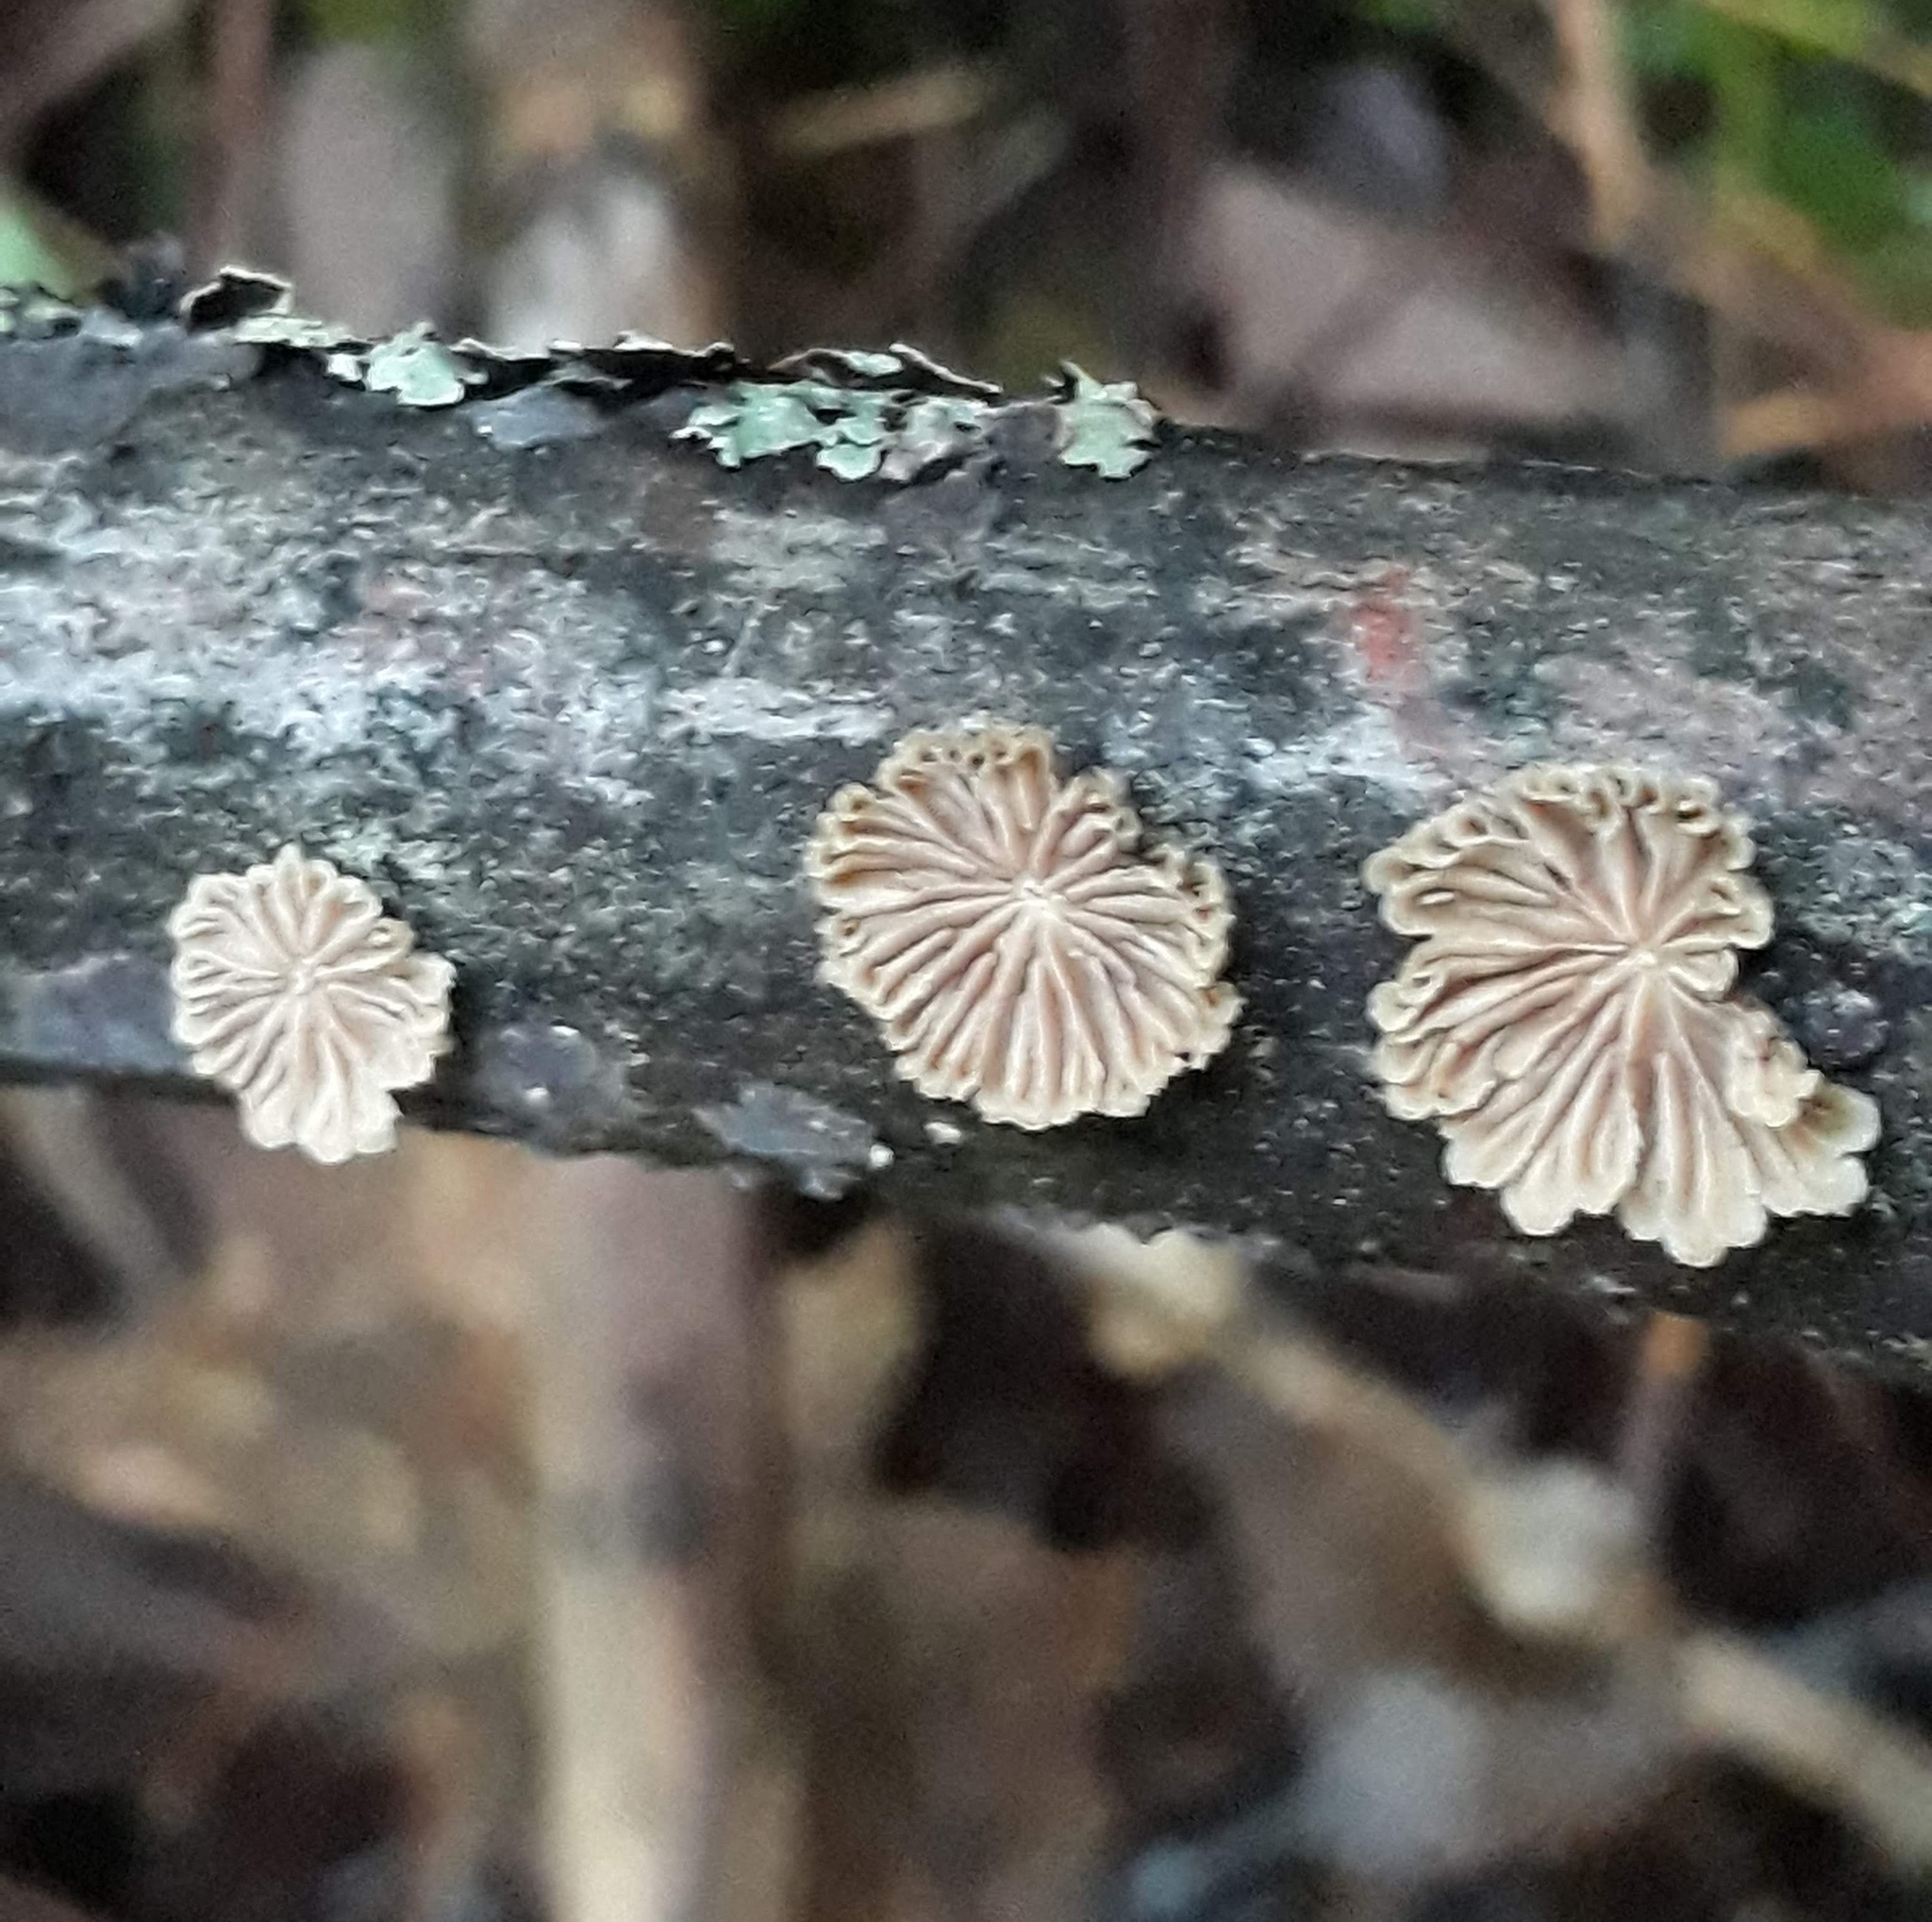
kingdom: Fungi
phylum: Basidiomycota
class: Agaricomycetes
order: Agaricales
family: Schizophyllaceae
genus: Schizophyllum
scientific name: Schizophyllum commune
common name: Common porecrust
